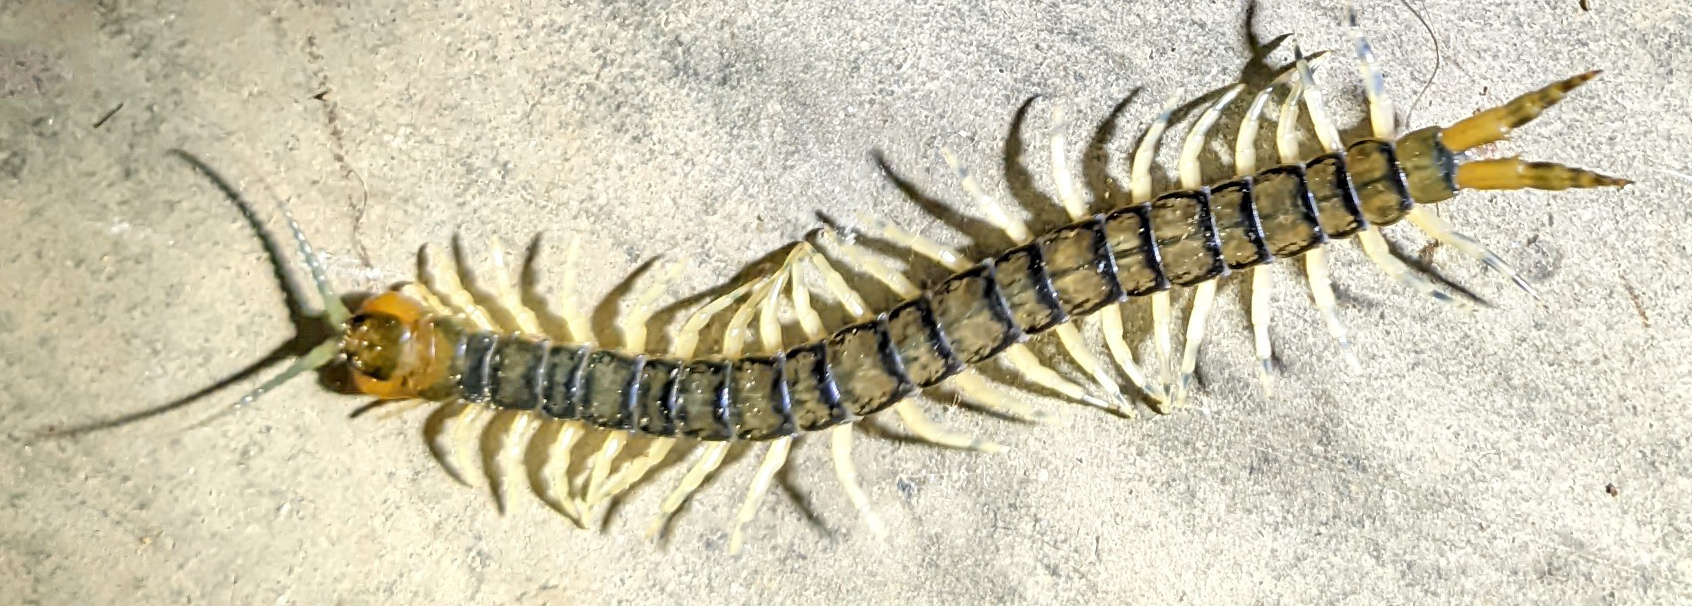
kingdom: Animalia
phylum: Arthropoda
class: Chilopoda
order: Scolopendromorpha
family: Scolopendridae
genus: Hemiscolopendra
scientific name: Hemiscolopendra marginata
